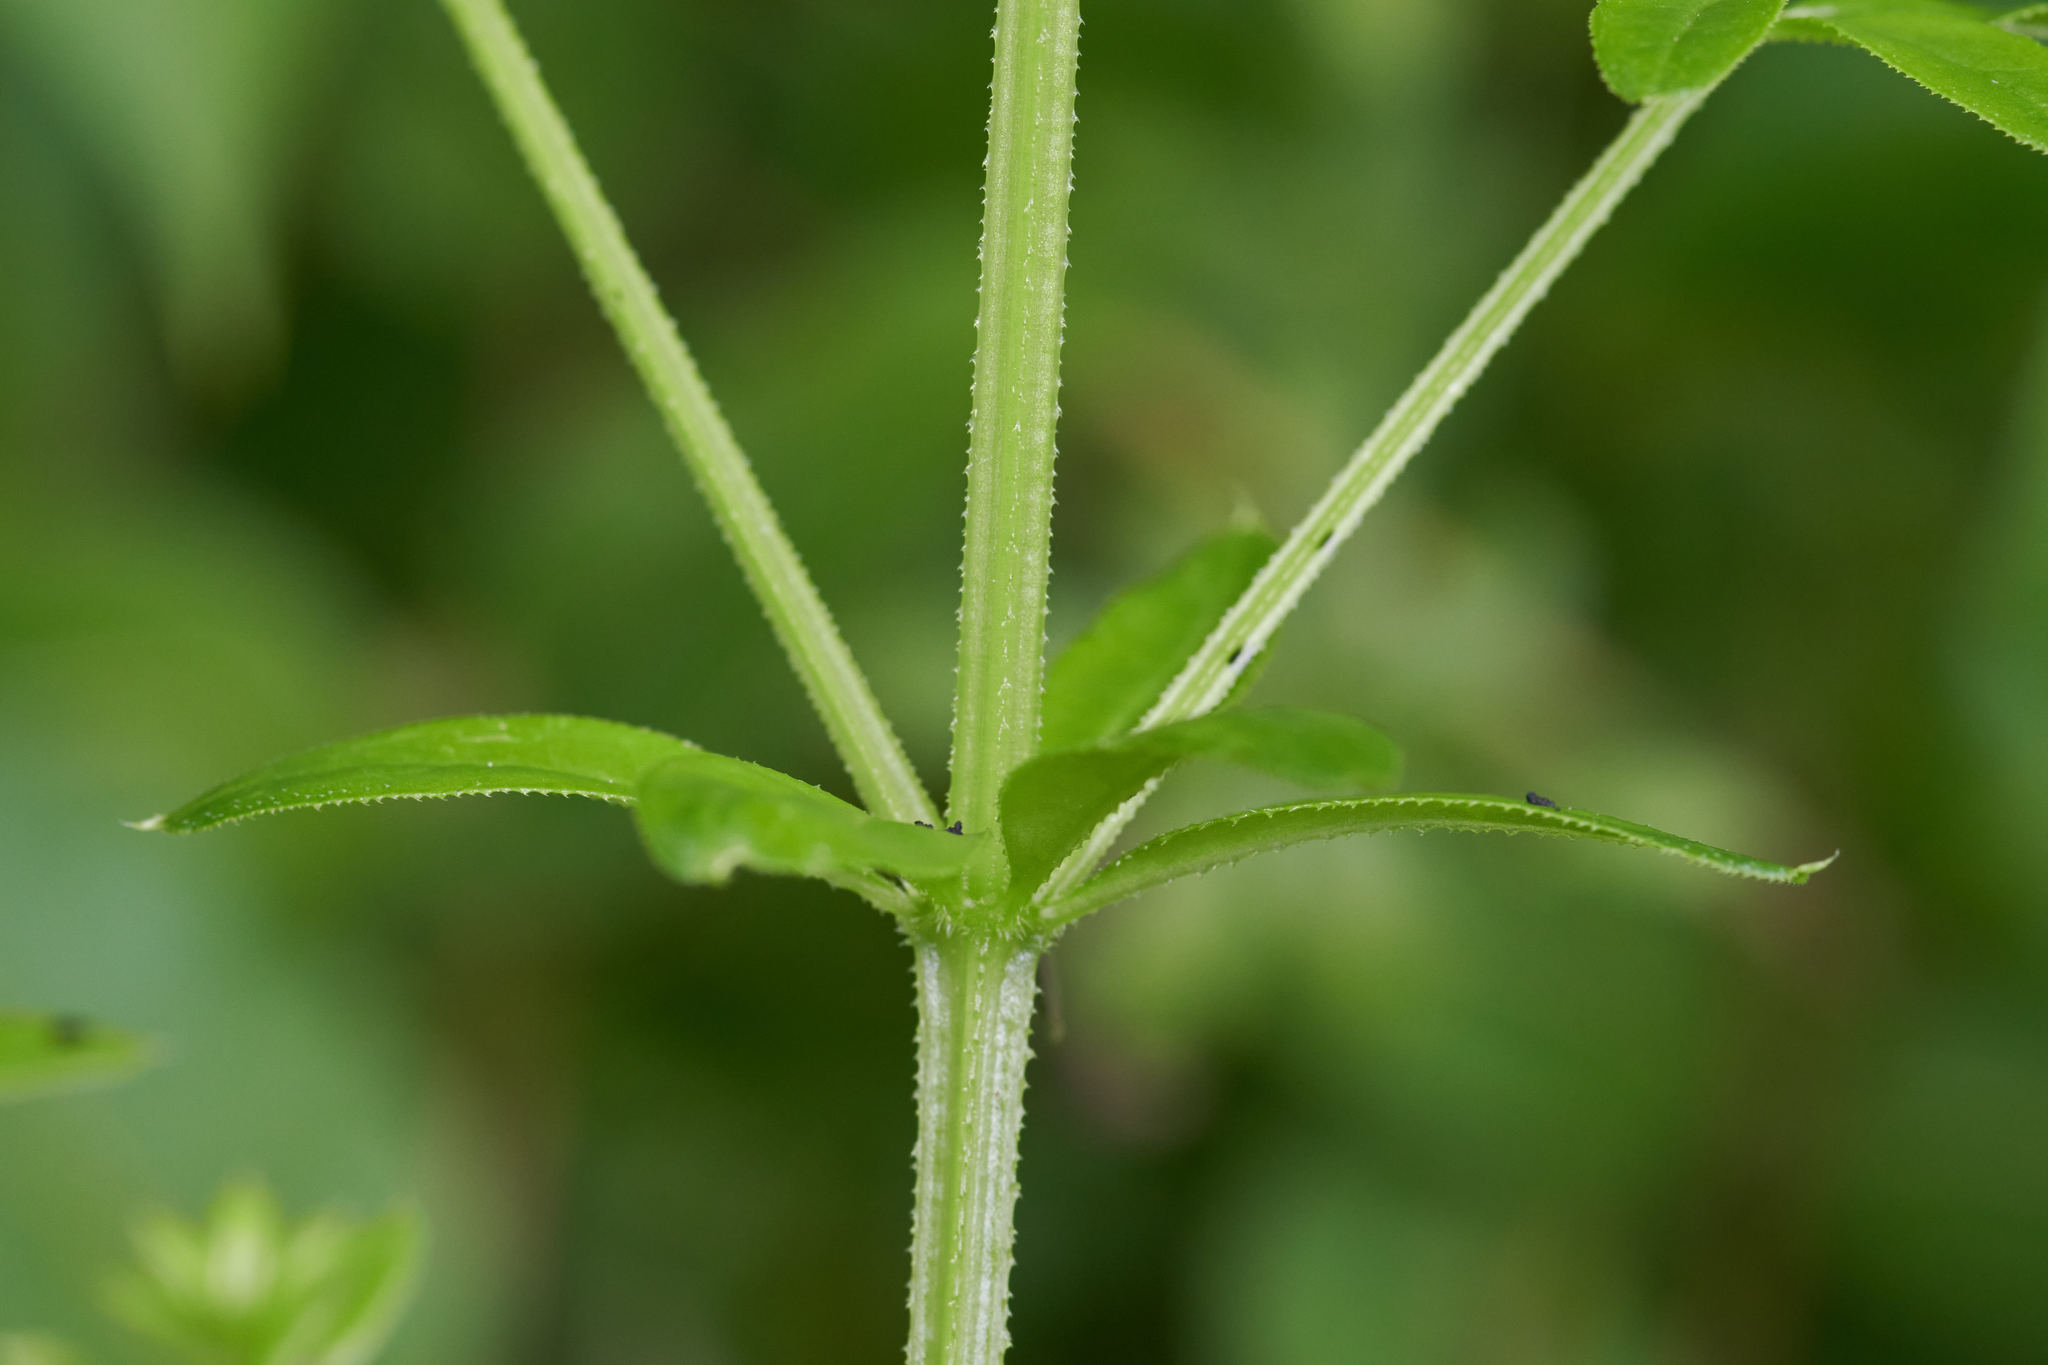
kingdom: Plantae
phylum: Tracheophyta
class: Magnoliopsida
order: Gentianales
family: Rubiaceae
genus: Galium
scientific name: Galium asprellum
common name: Rough bedstraw
